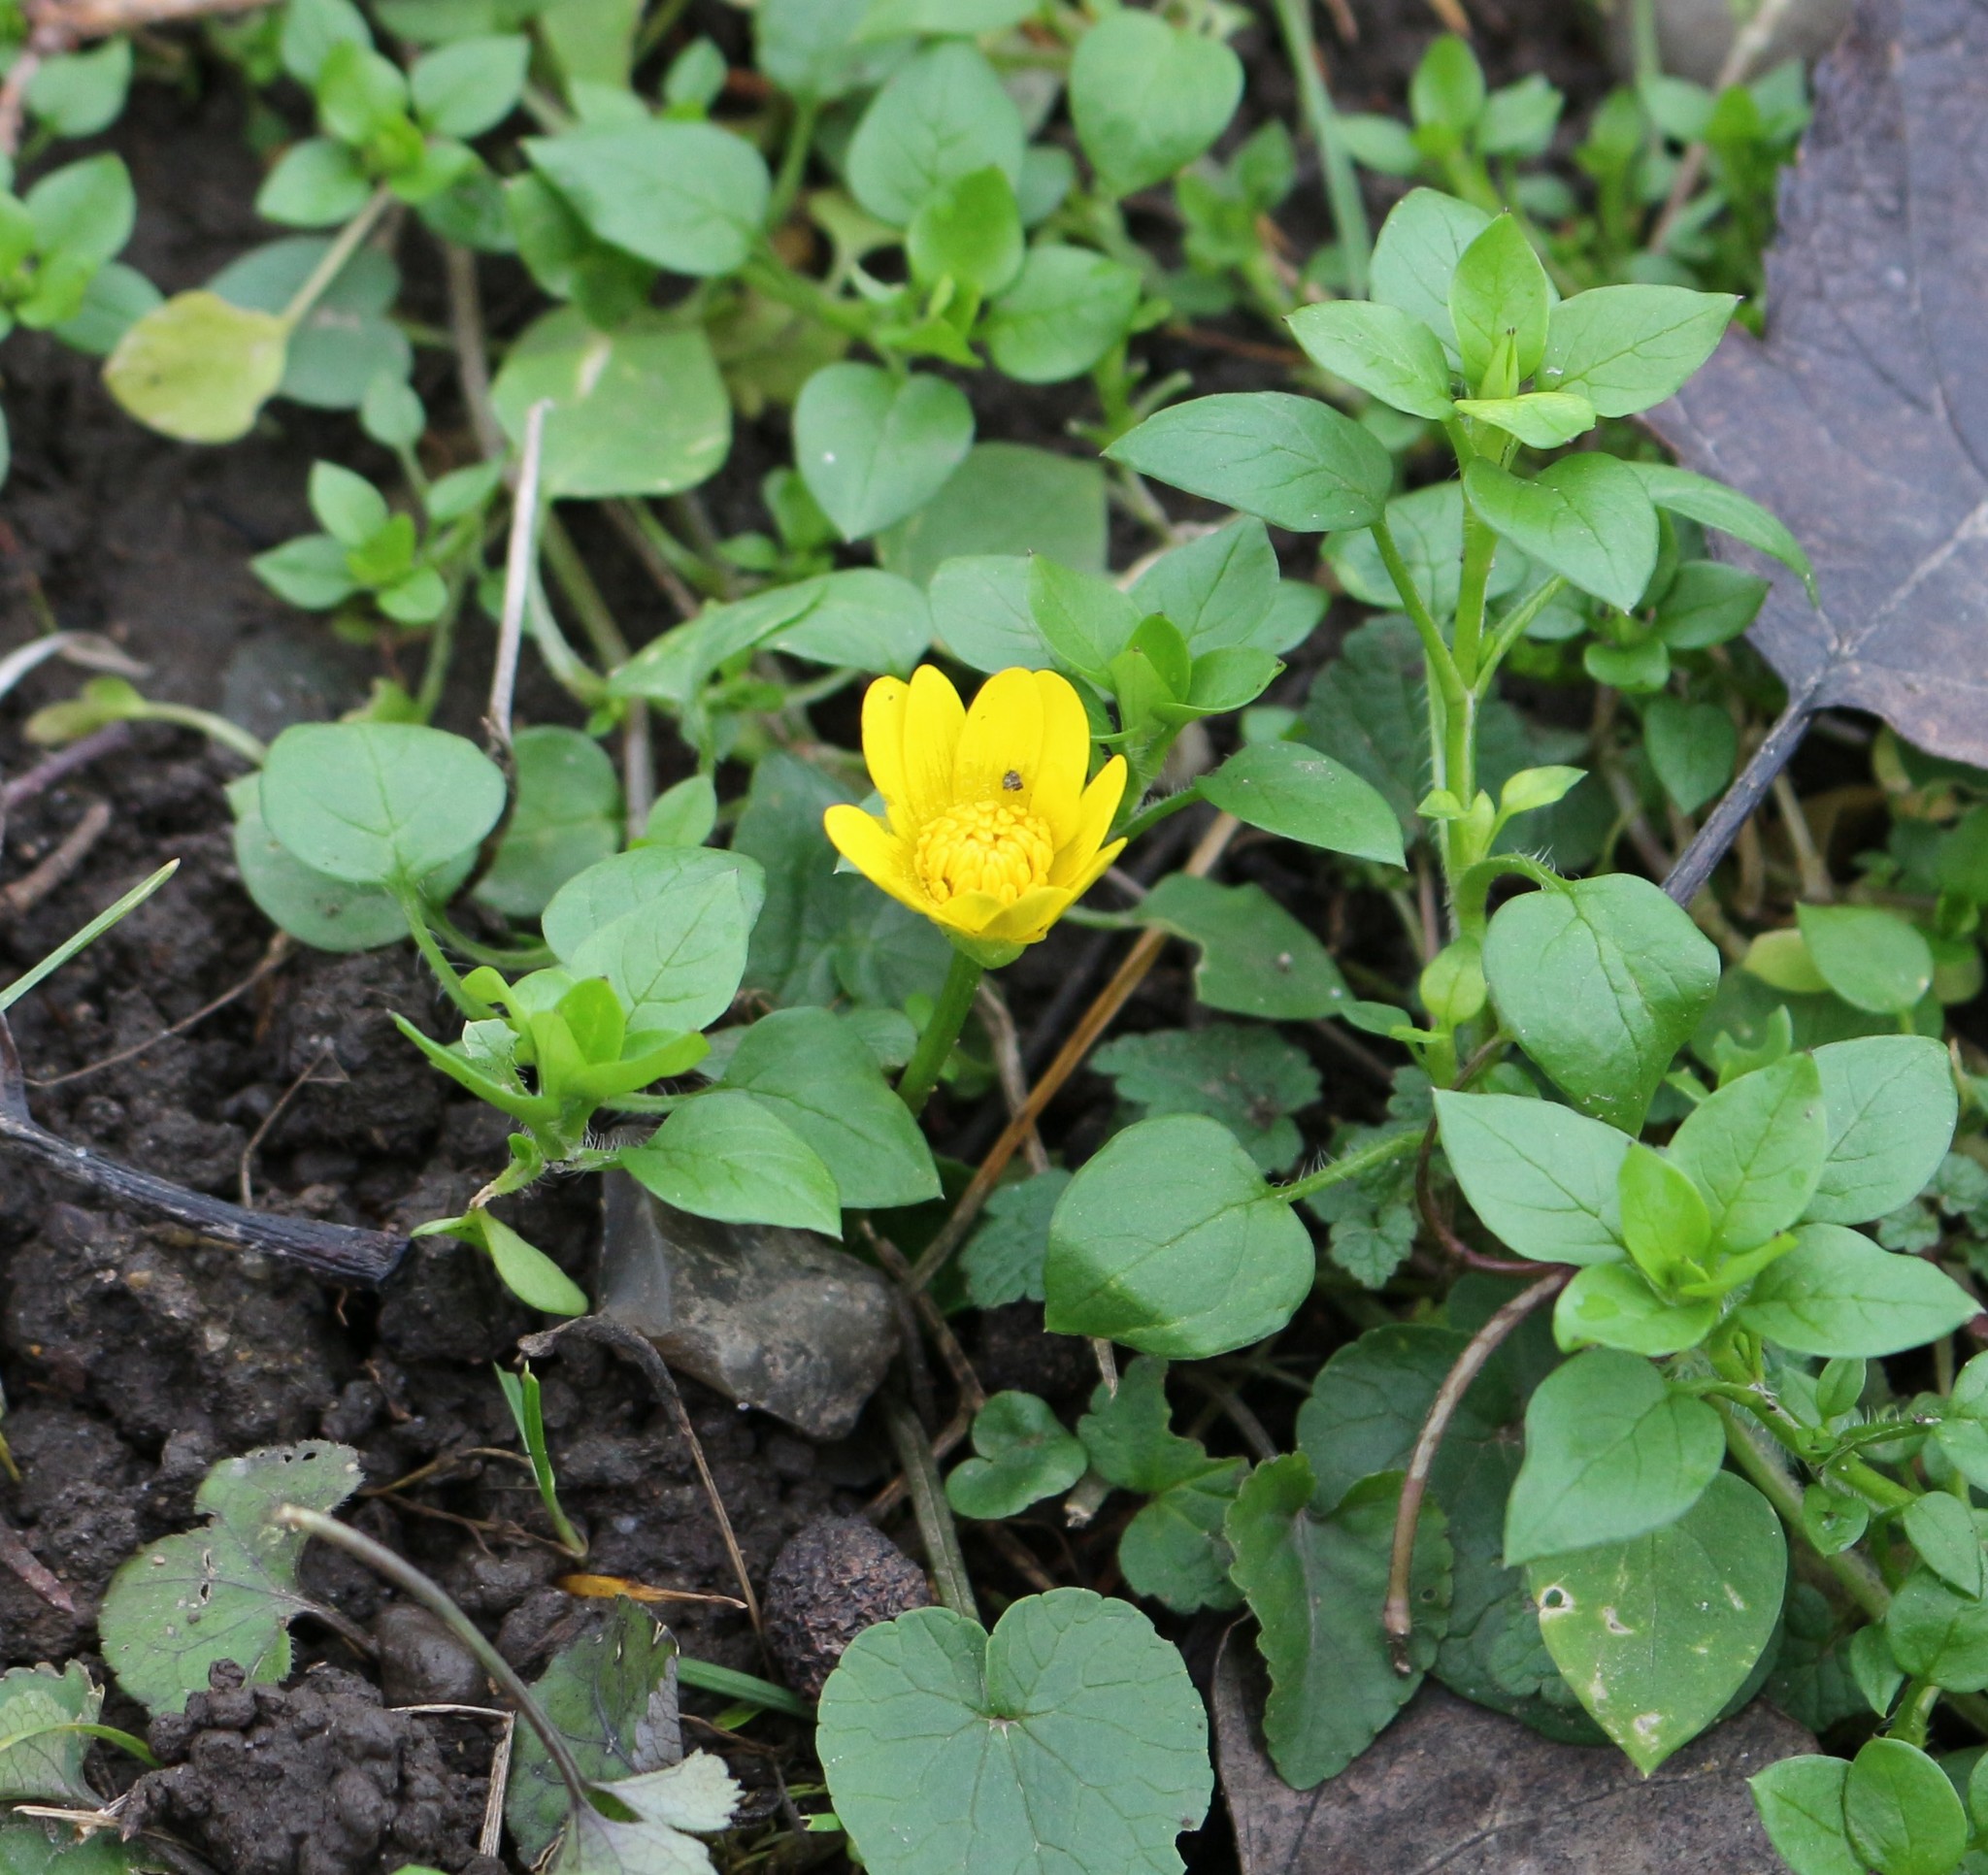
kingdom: Plantae
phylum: Tracheophyta
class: Magnoliopsida
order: Ranunculales
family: Ranunculaceae
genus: Ficaria
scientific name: Ficaria verna
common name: Lesser celandine
